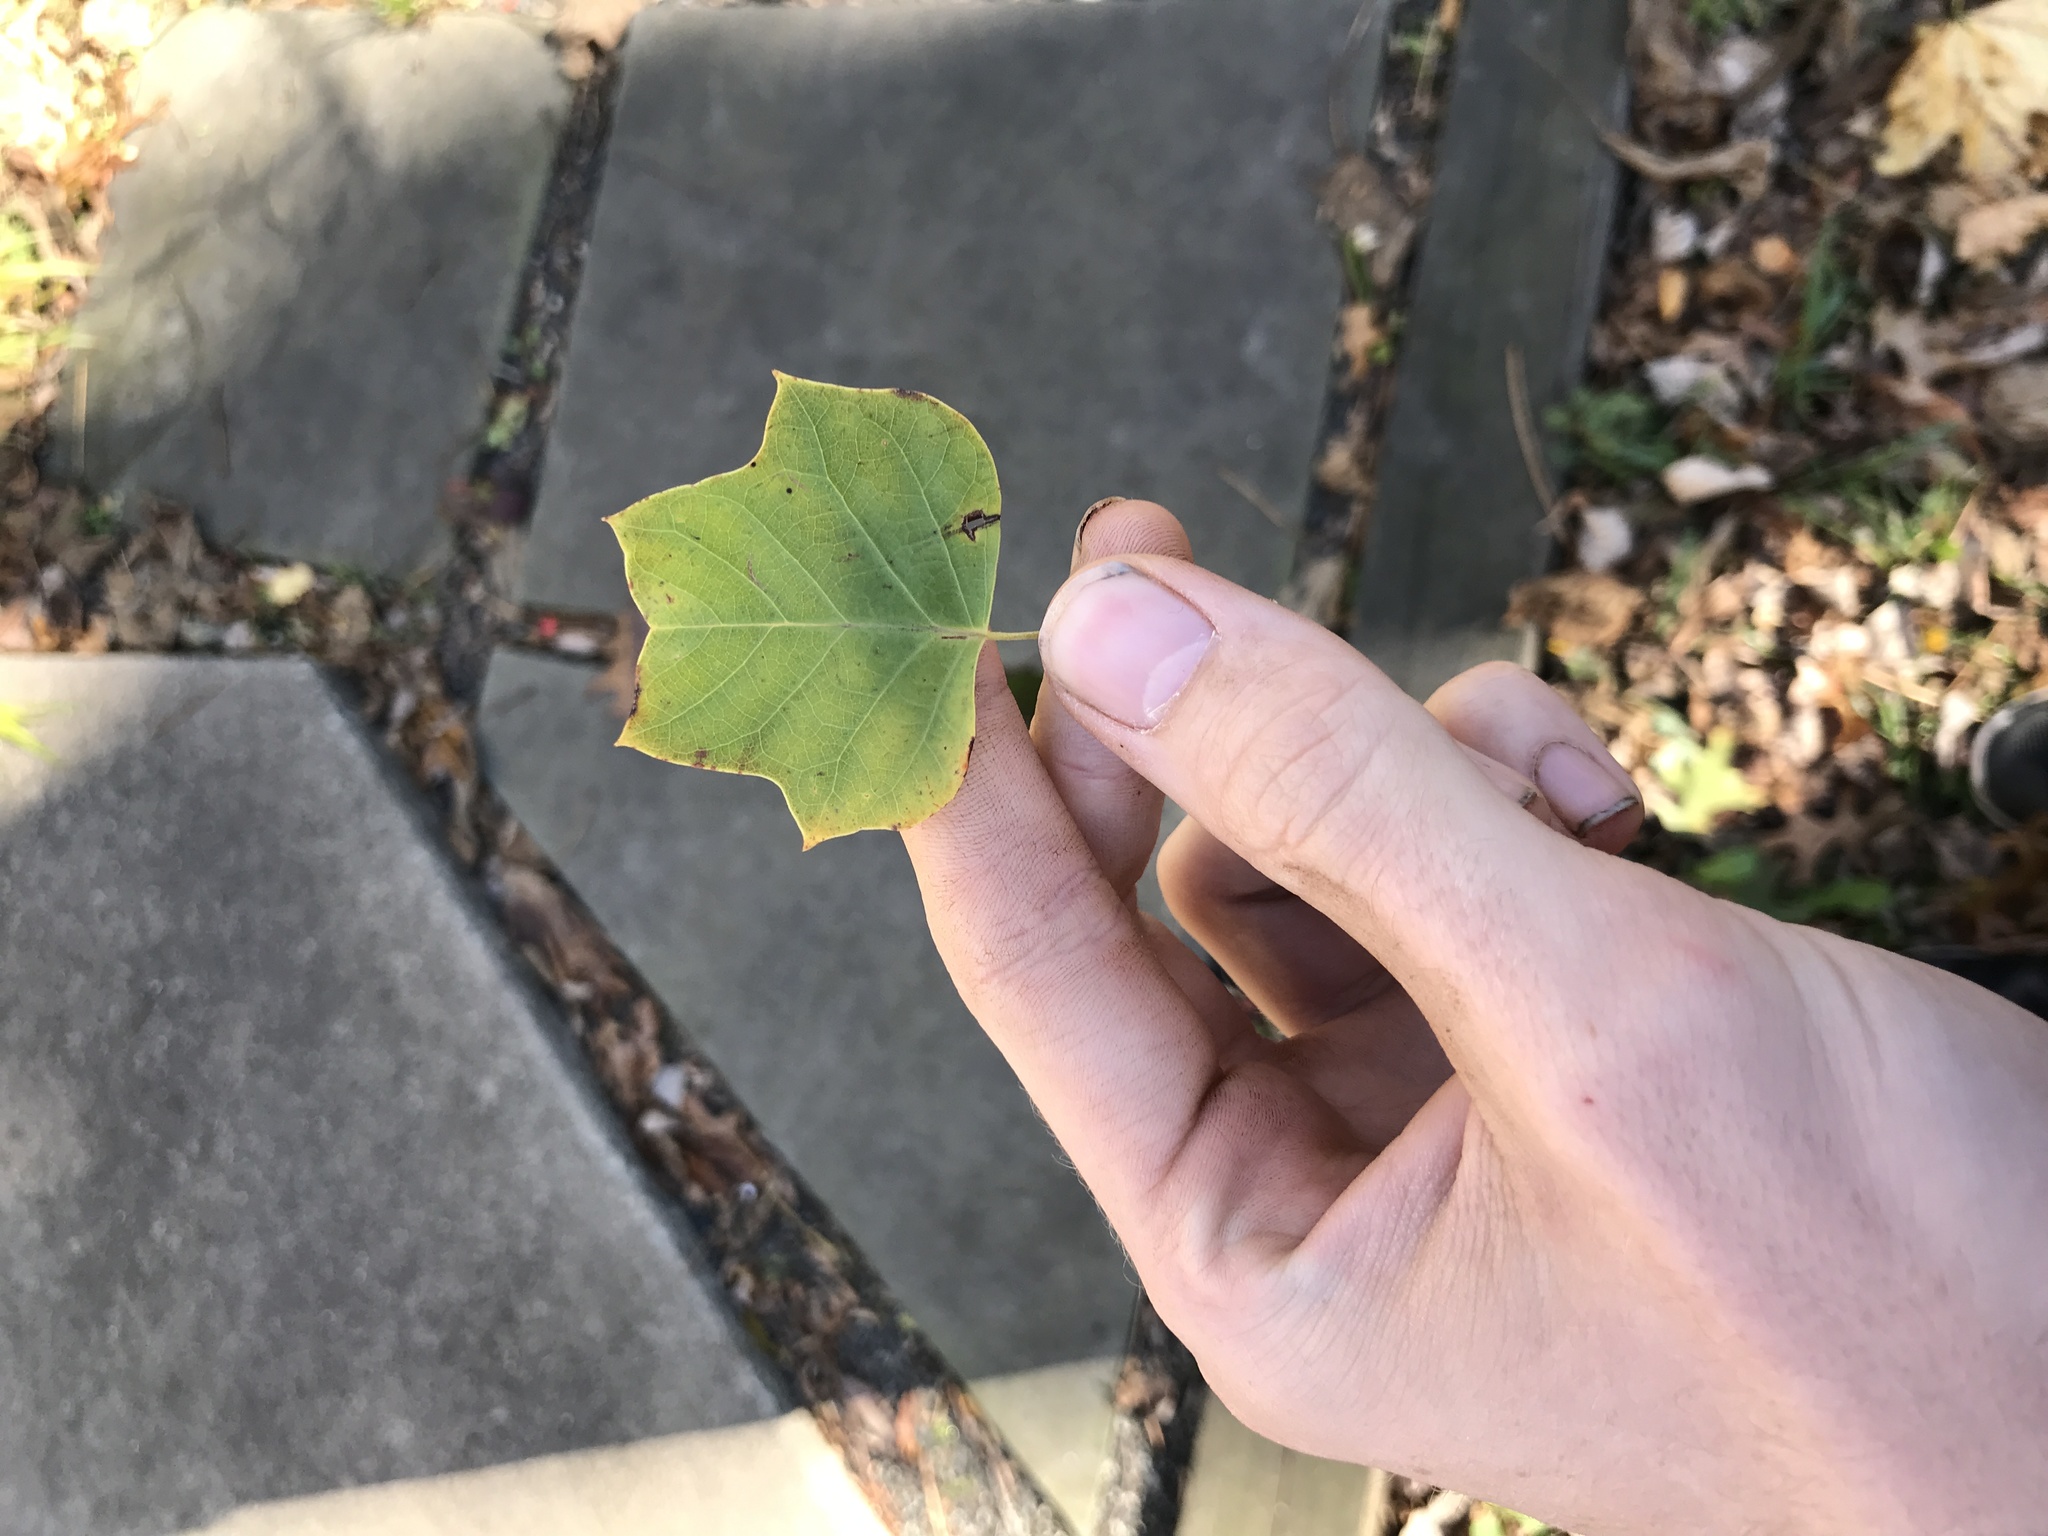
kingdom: Plantae
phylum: Tracheophyta
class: Magnoliopsida
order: Magnoliales
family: Magnoliaceae
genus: Liriodendron
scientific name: Liriodendron tulipifera
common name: Tulip tree
